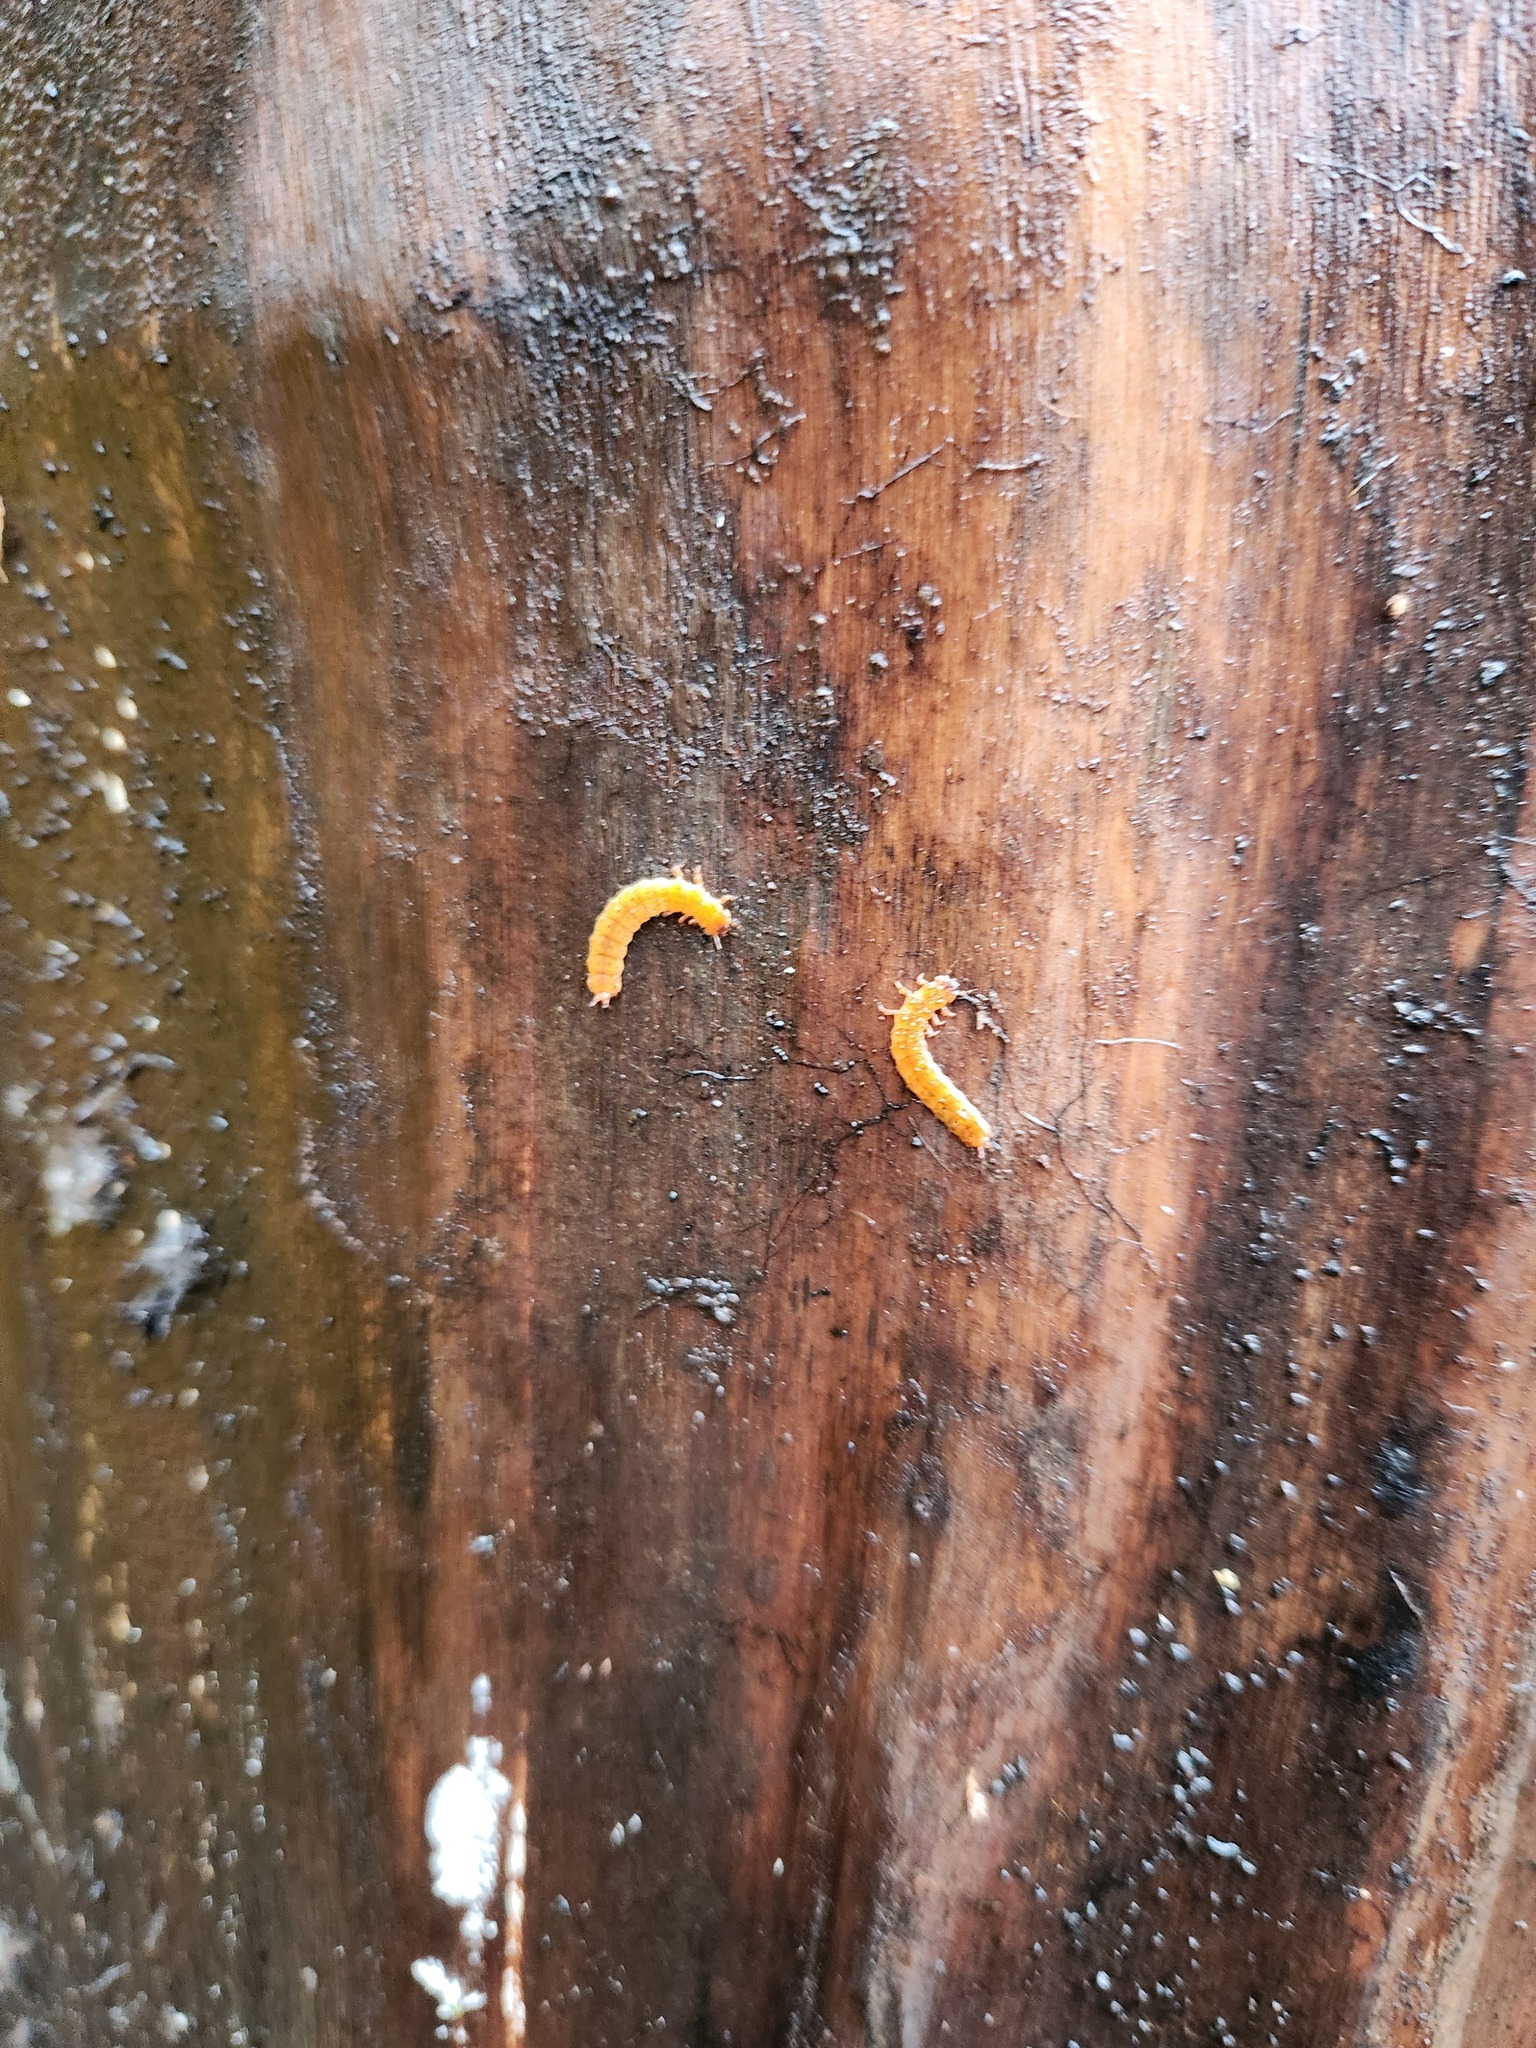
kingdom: Animalia
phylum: Arthropoda
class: Insecta
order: Coleoptera
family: Cucujidae
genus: Cucujus
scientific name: Cucujus clavipes
